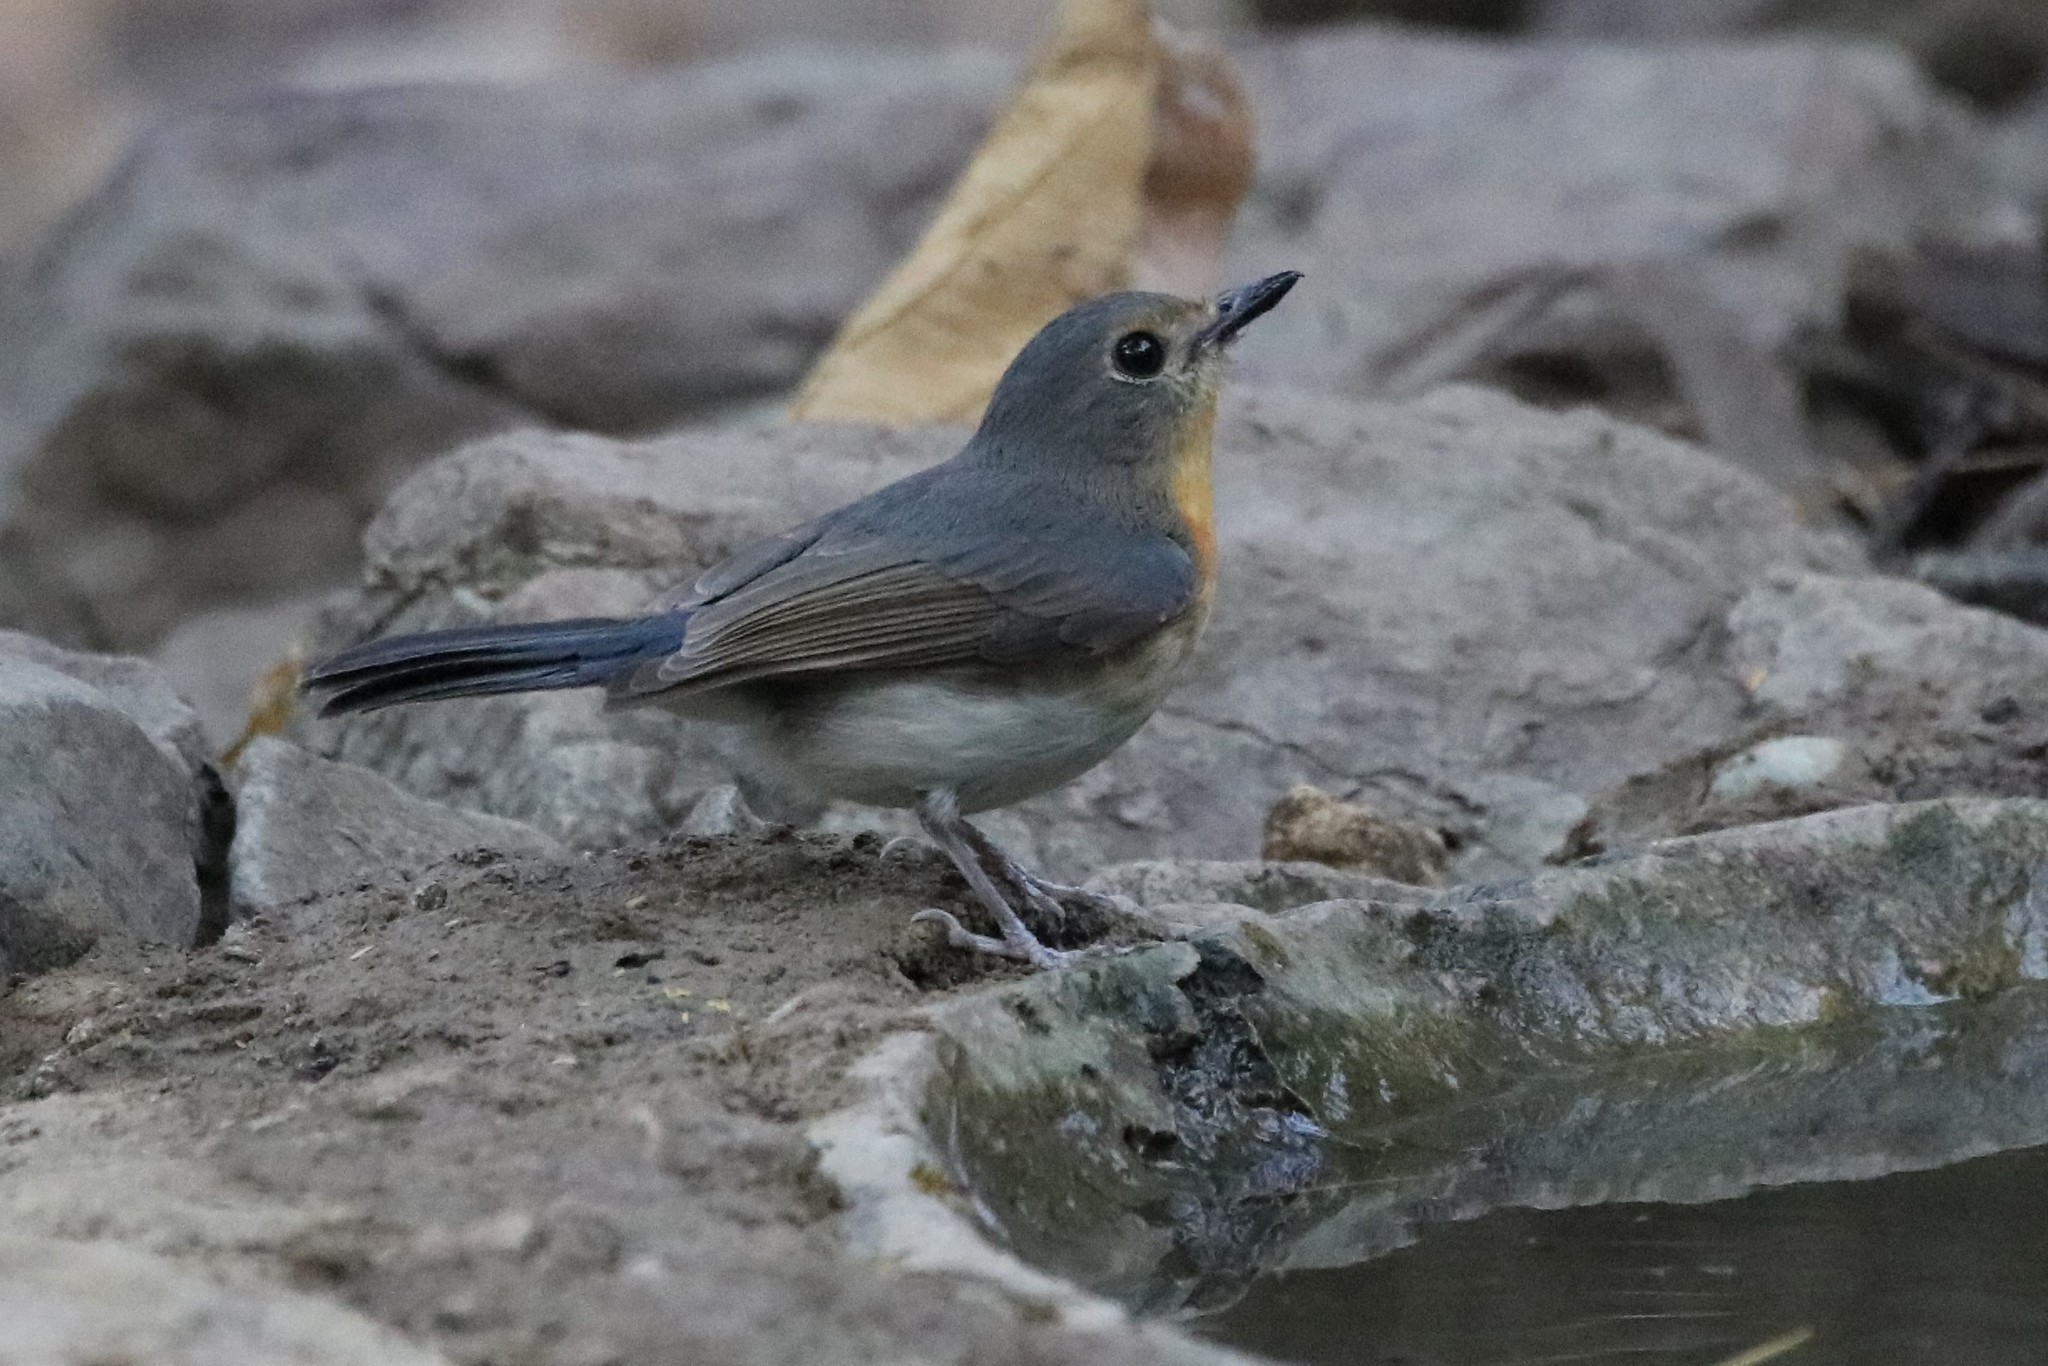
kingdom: Animalia
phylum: Chordata
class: Aves
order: Passeriformes
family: Muscicapidae
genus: Cyornis
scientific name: Cyornis tickelliae
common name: Tickell's blue flycatcher
